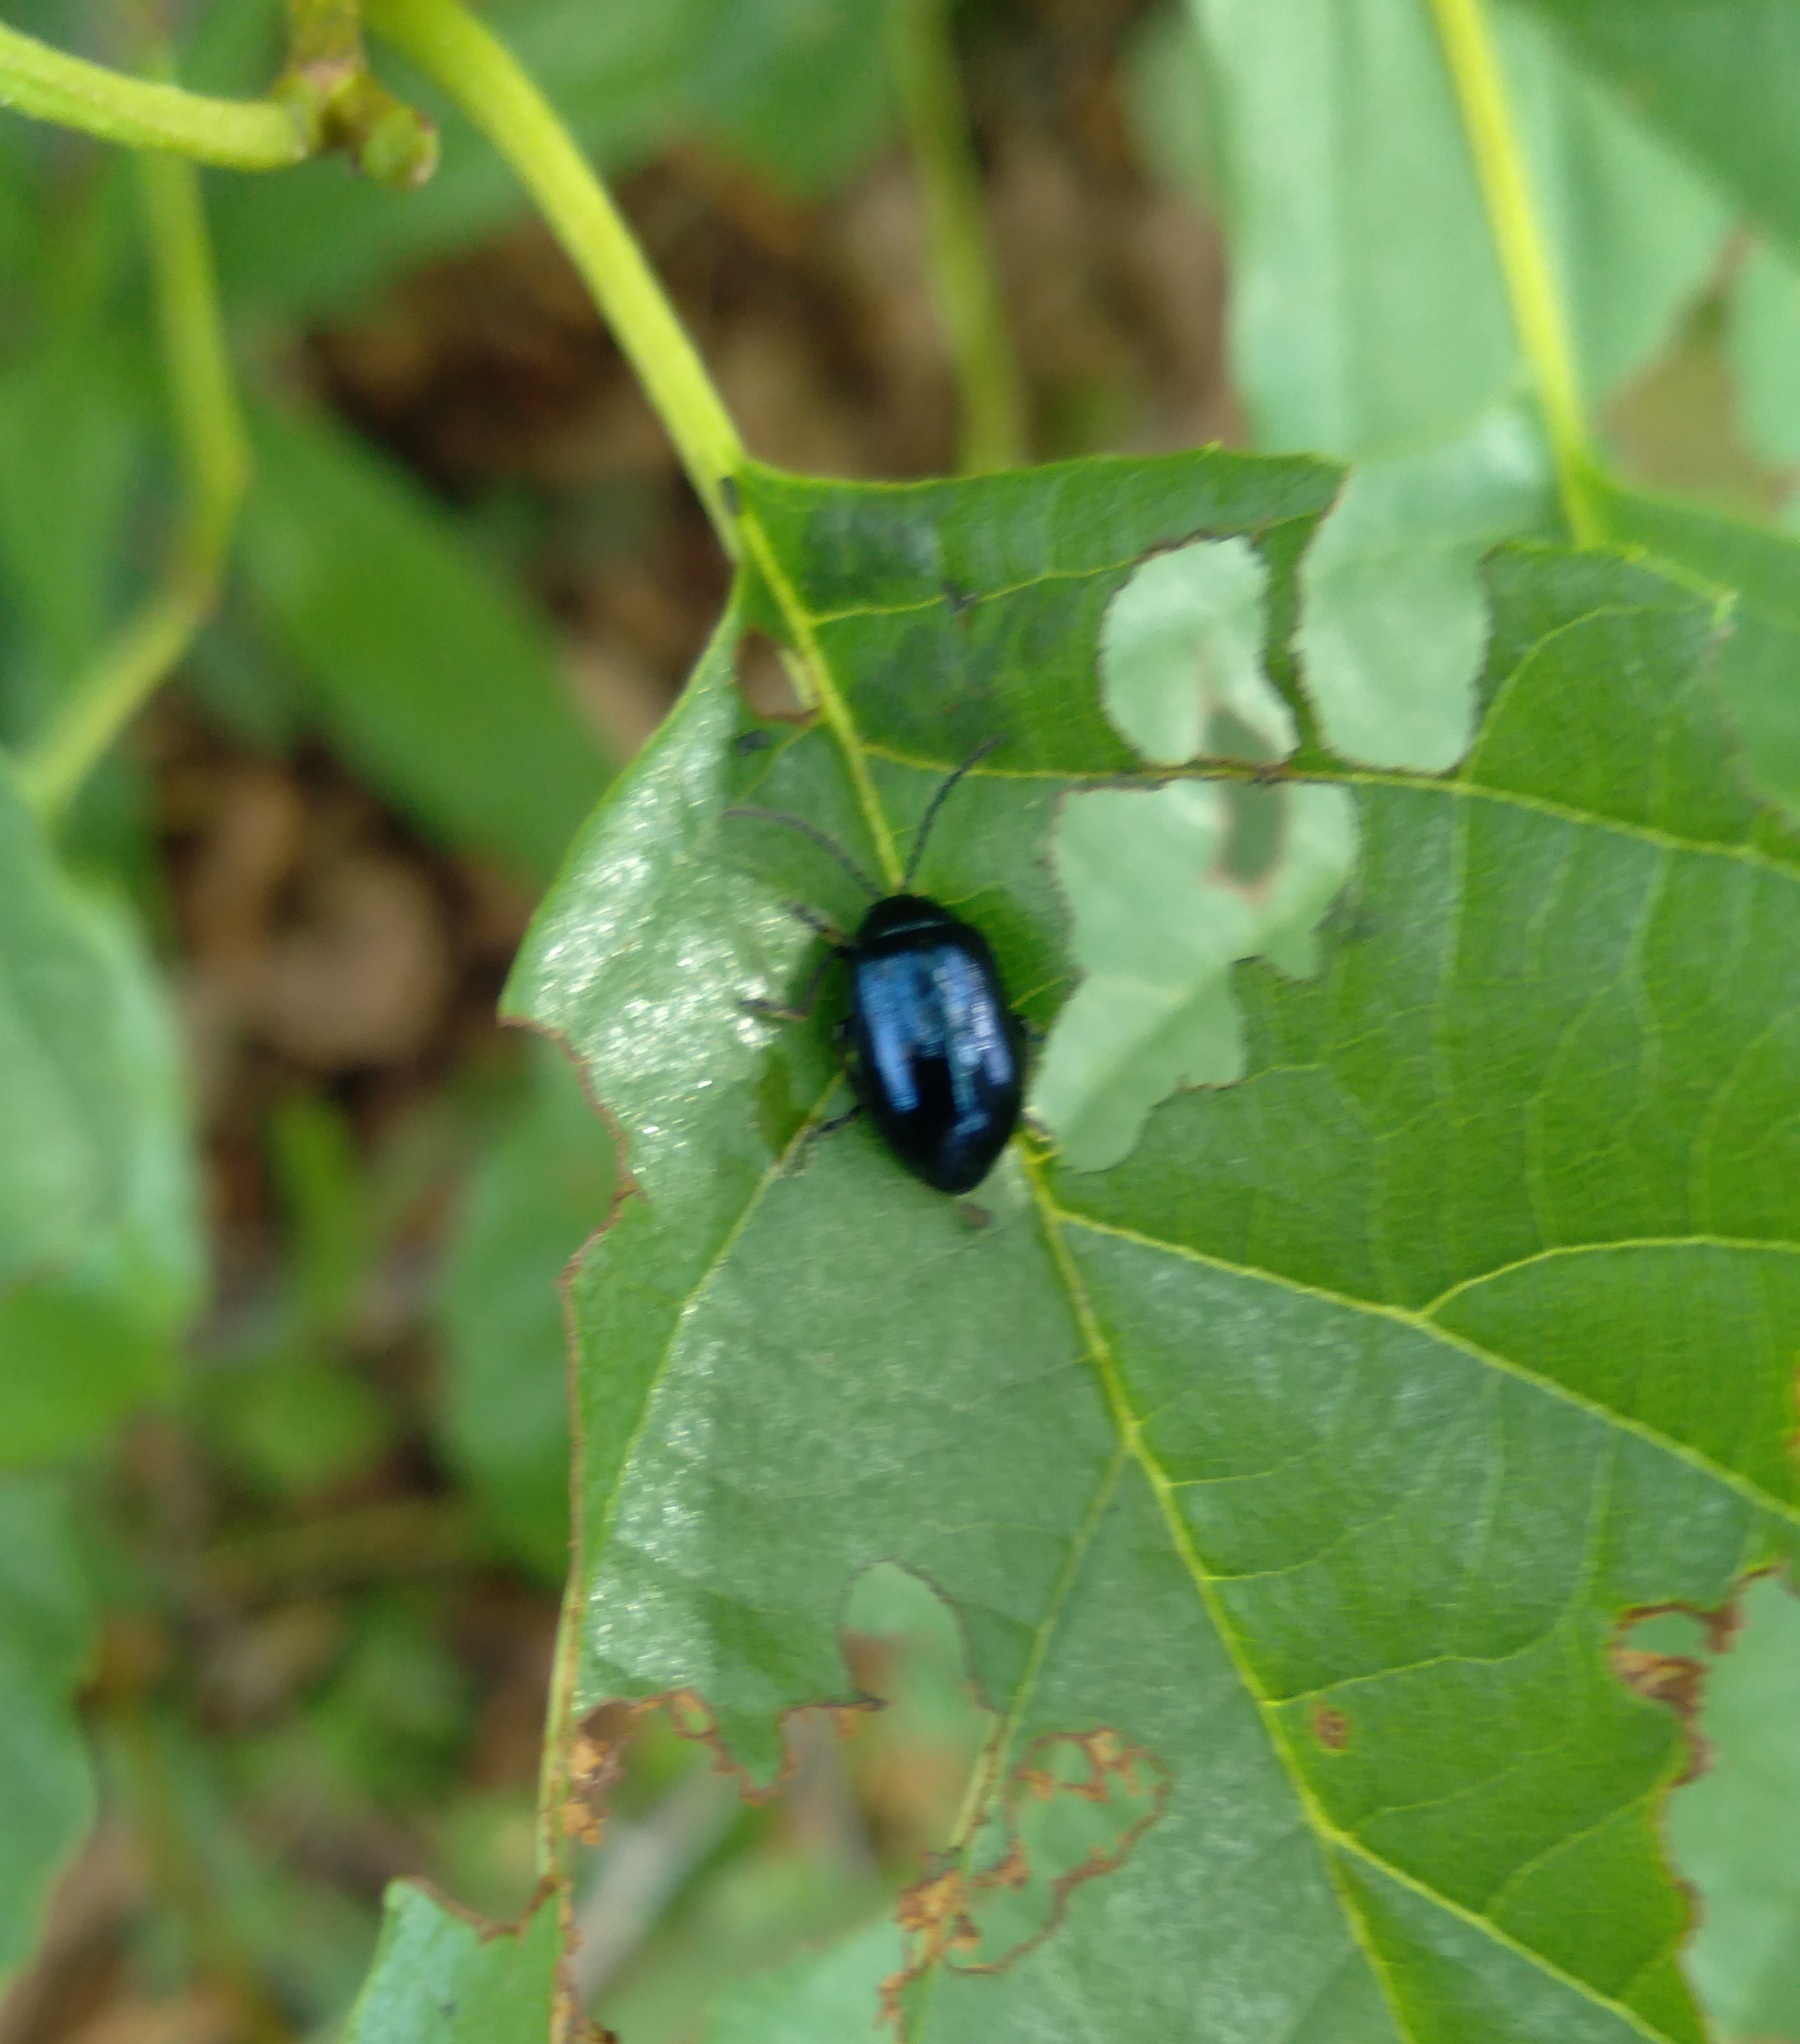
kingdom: Animalia
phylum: Arthropoda
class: Insecta
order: Coleoptera
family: Chrysomelidae
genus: Agelastica
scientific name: Agelastica alni
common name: Alder leaf beetle
